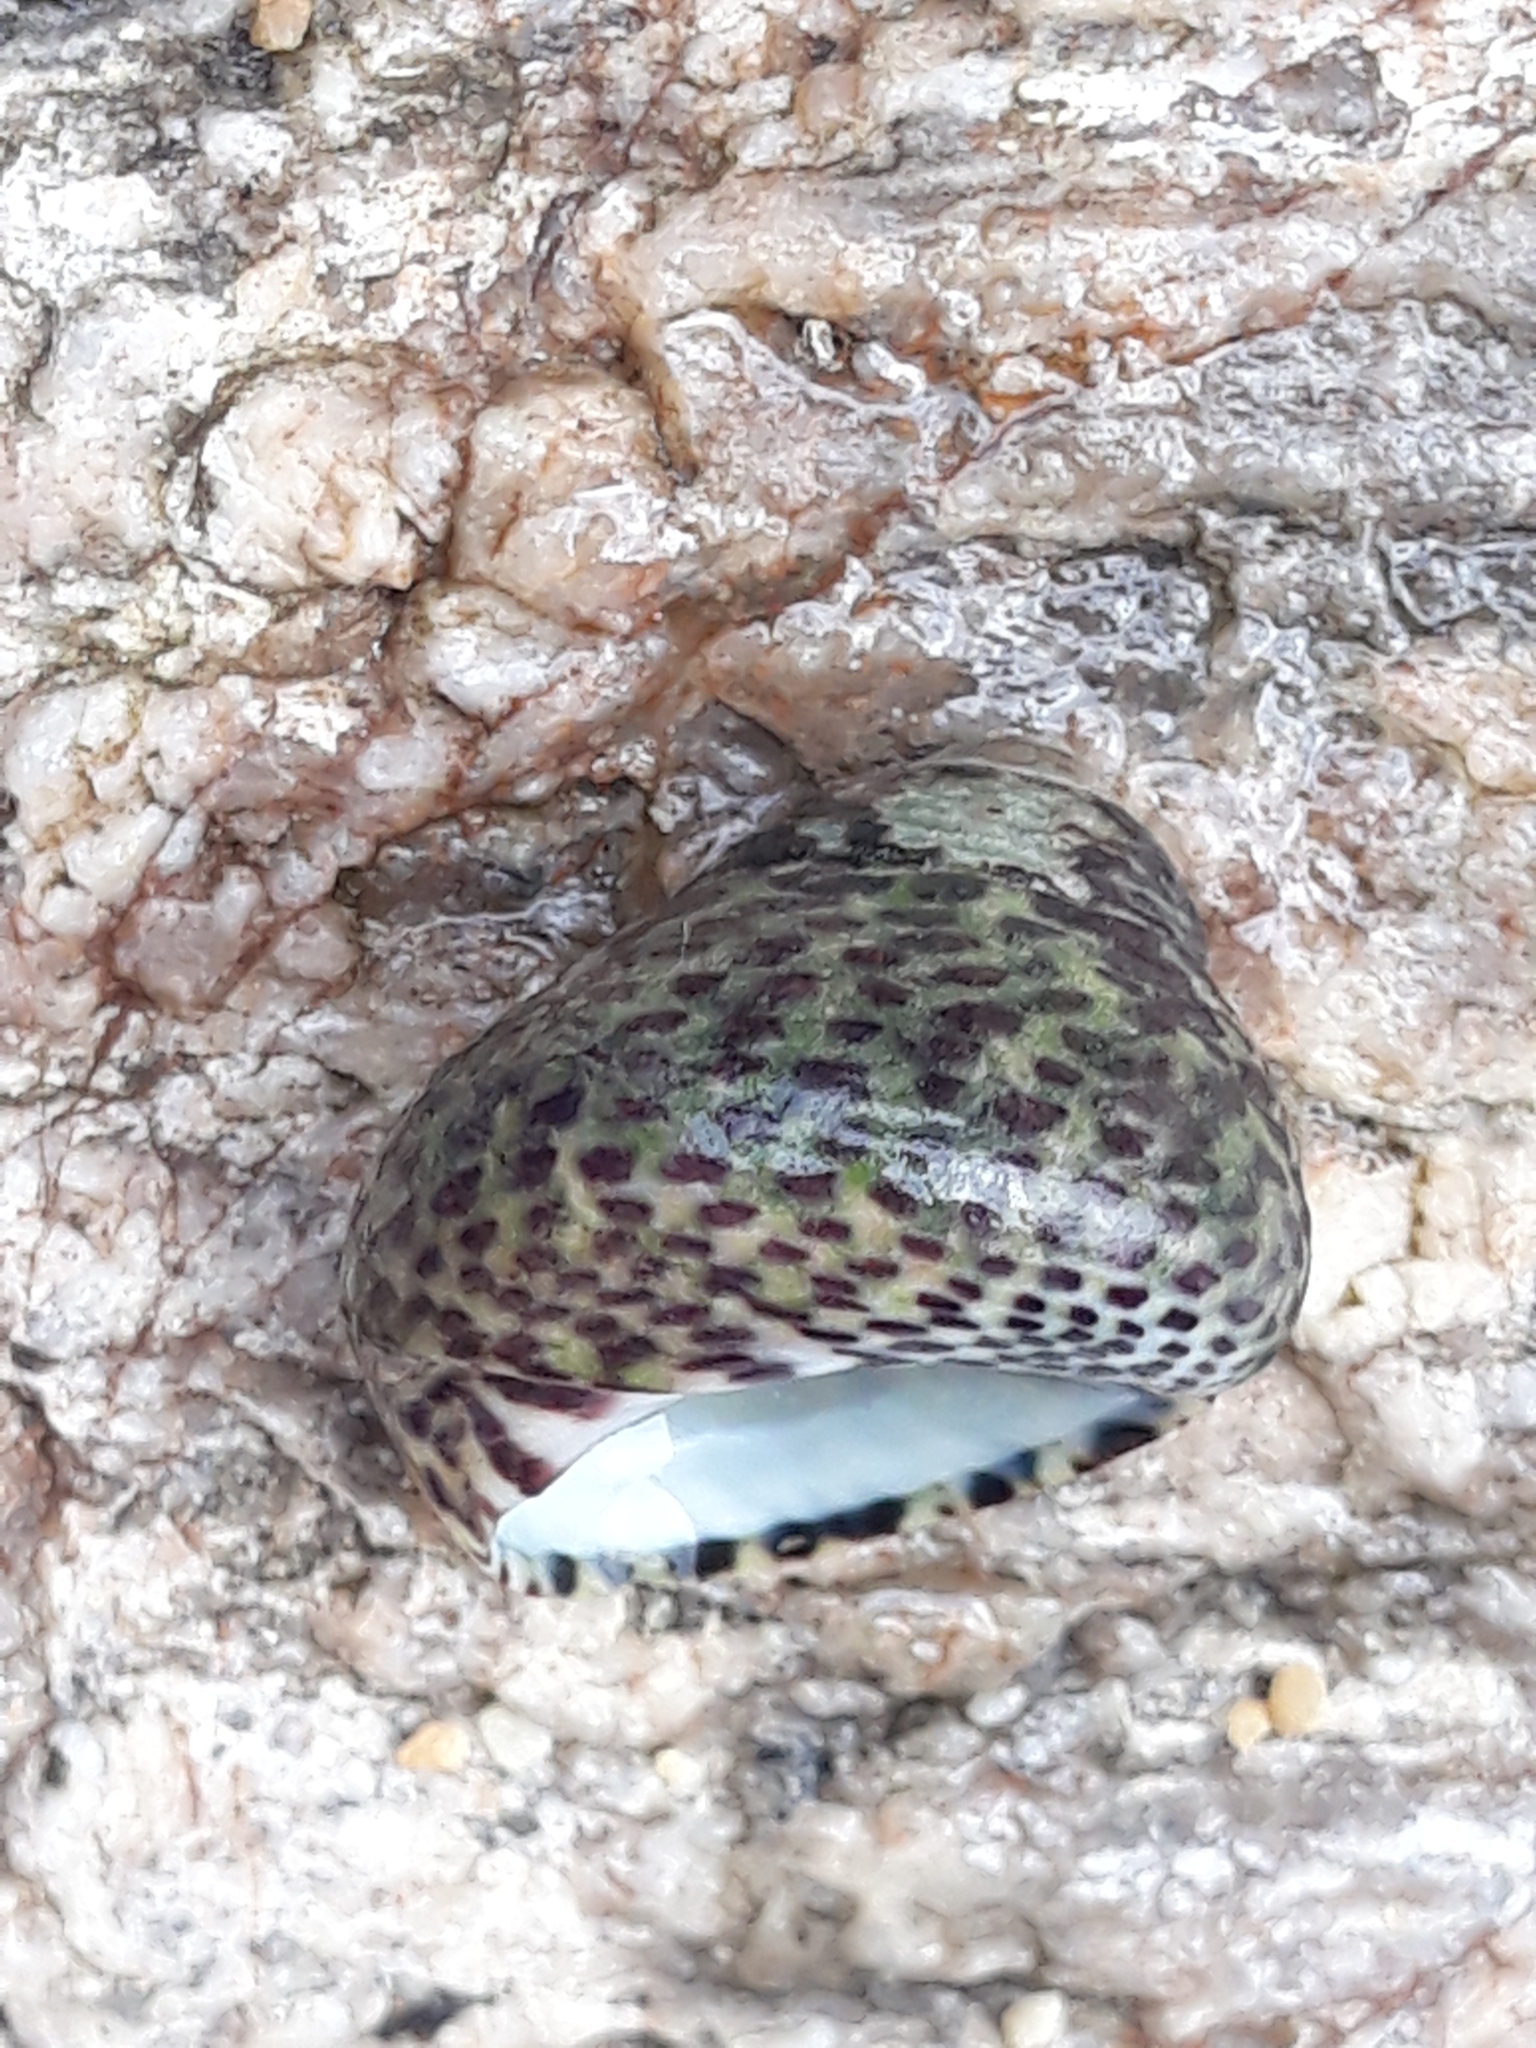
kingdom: Animalia
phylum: Mollusca
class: Gastropoda
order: Trochida
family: Trochidae
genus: Phorcus
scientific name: Phorcus turbinatus
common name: Turbinate monodont
